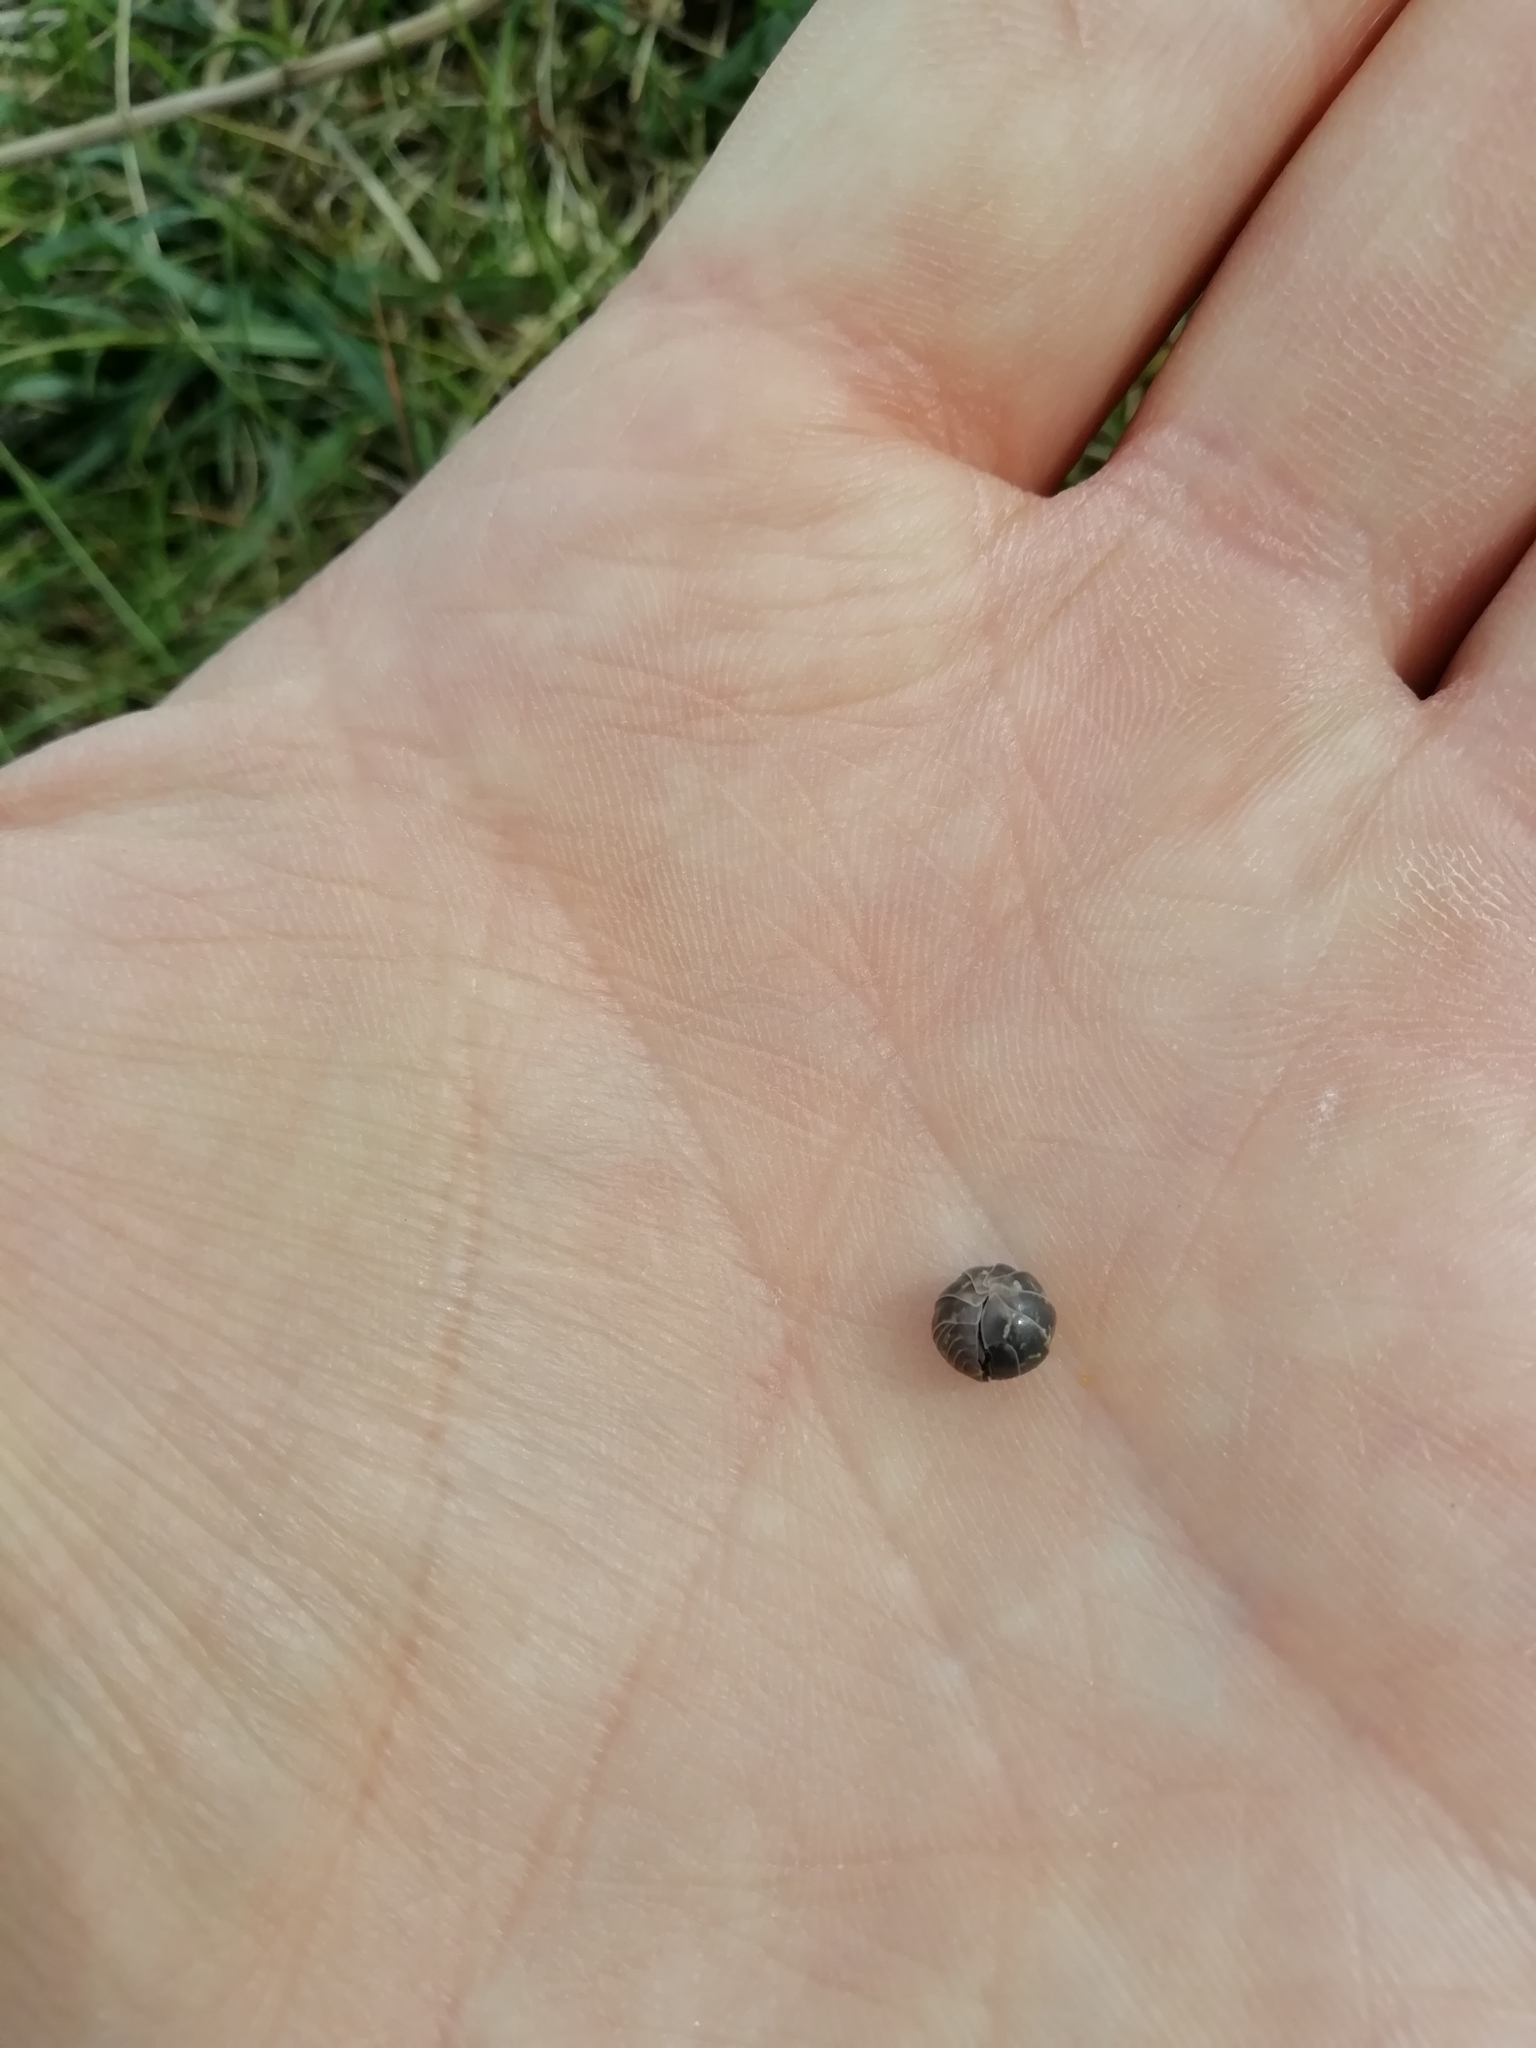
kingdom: Animalia
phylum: Arthropoda
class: Malacostraca
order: Isopoda
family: Armadillidiidae
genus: Armadillidium
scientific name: Armadillidium vulgare
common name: Common pill woodlouse
